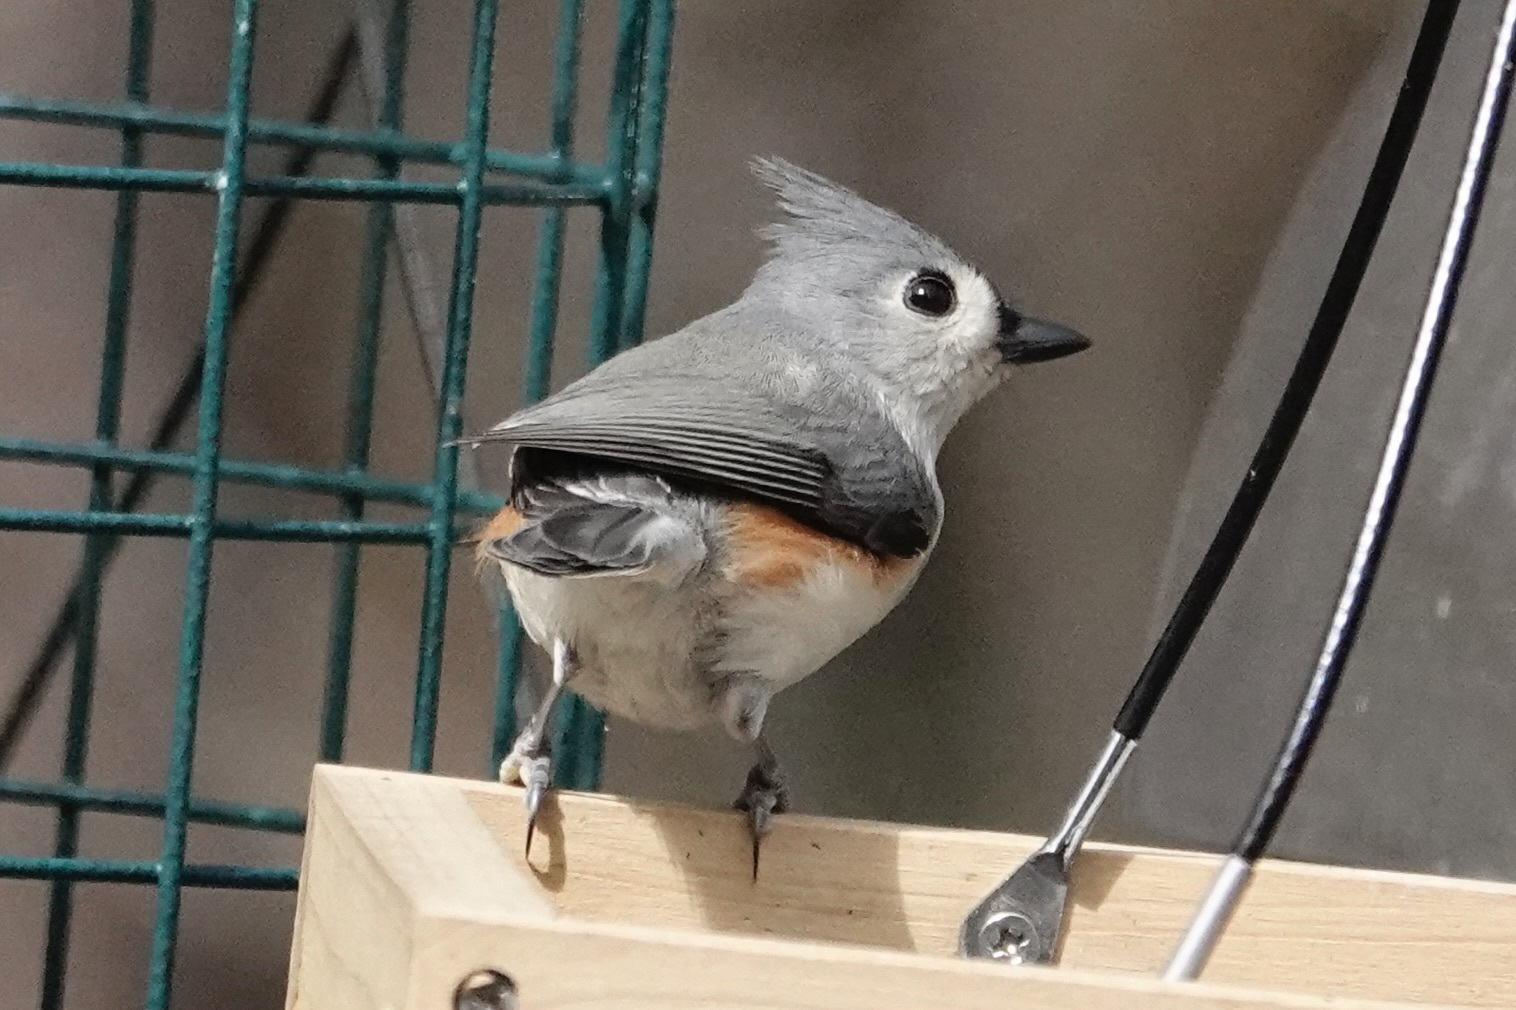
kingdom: Animalia
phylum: Chordata
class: Aves
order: Passeriformes
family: Paridae
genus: Baeolophus
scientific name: Baeolophus bicolor
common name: Tufted titmouse
